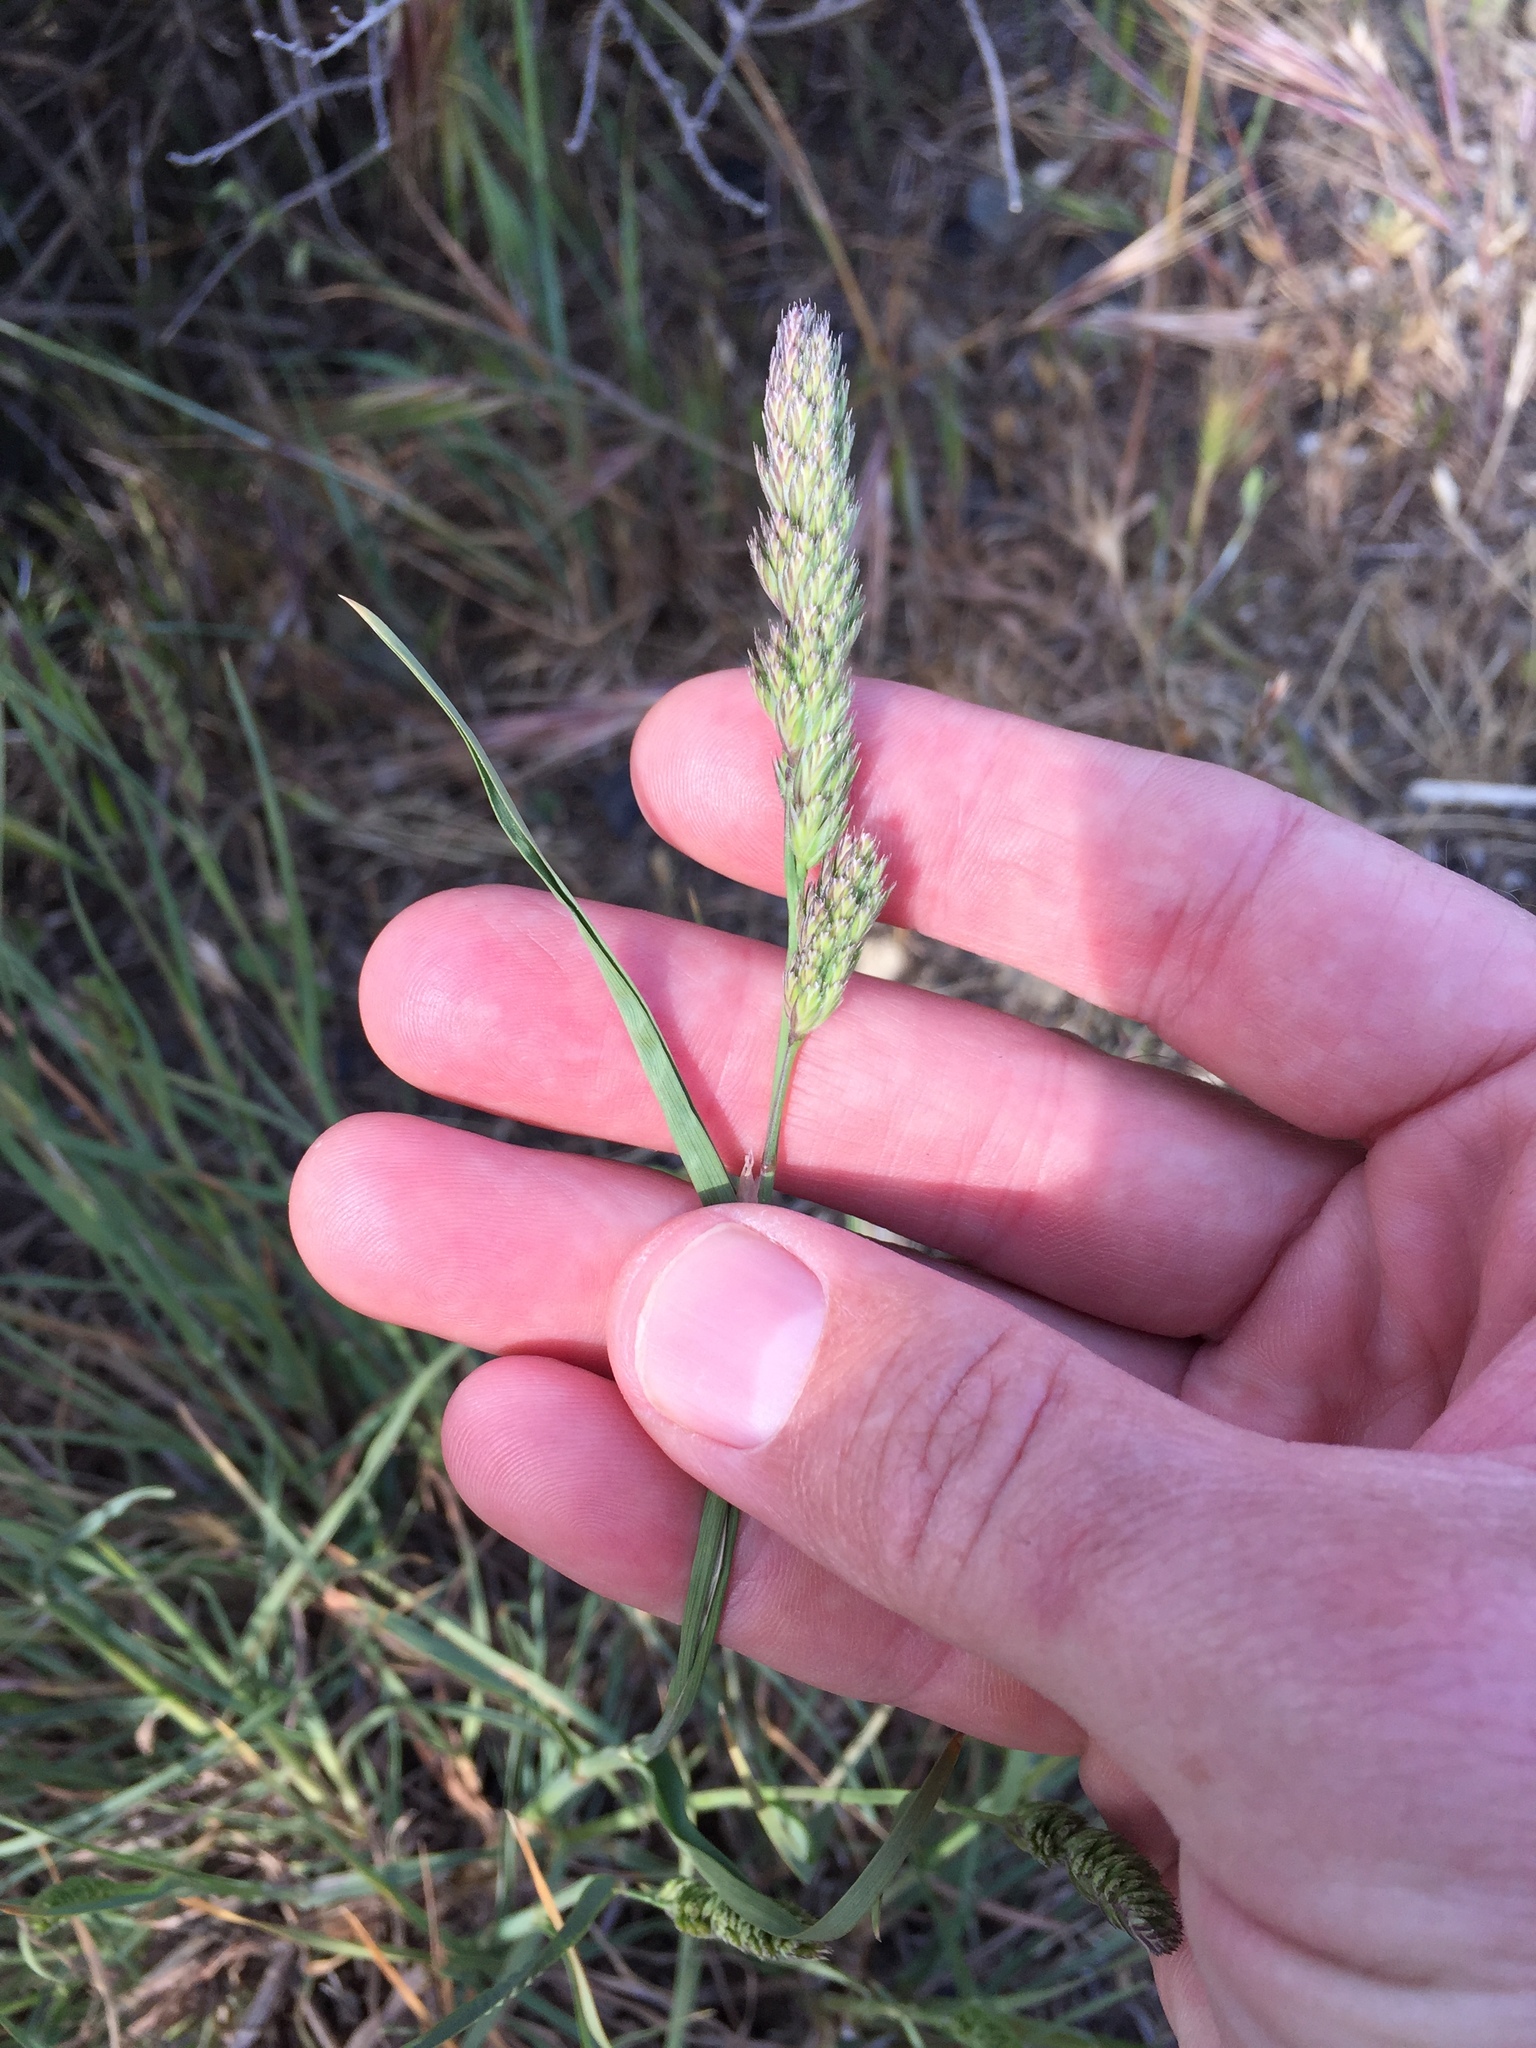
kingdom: Plantae
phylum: Tracheophyta
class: Liliopsida
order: Poales
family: Poaceae
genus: Dactylis
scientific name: Dactylis glomerata
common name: Orchardgrass
